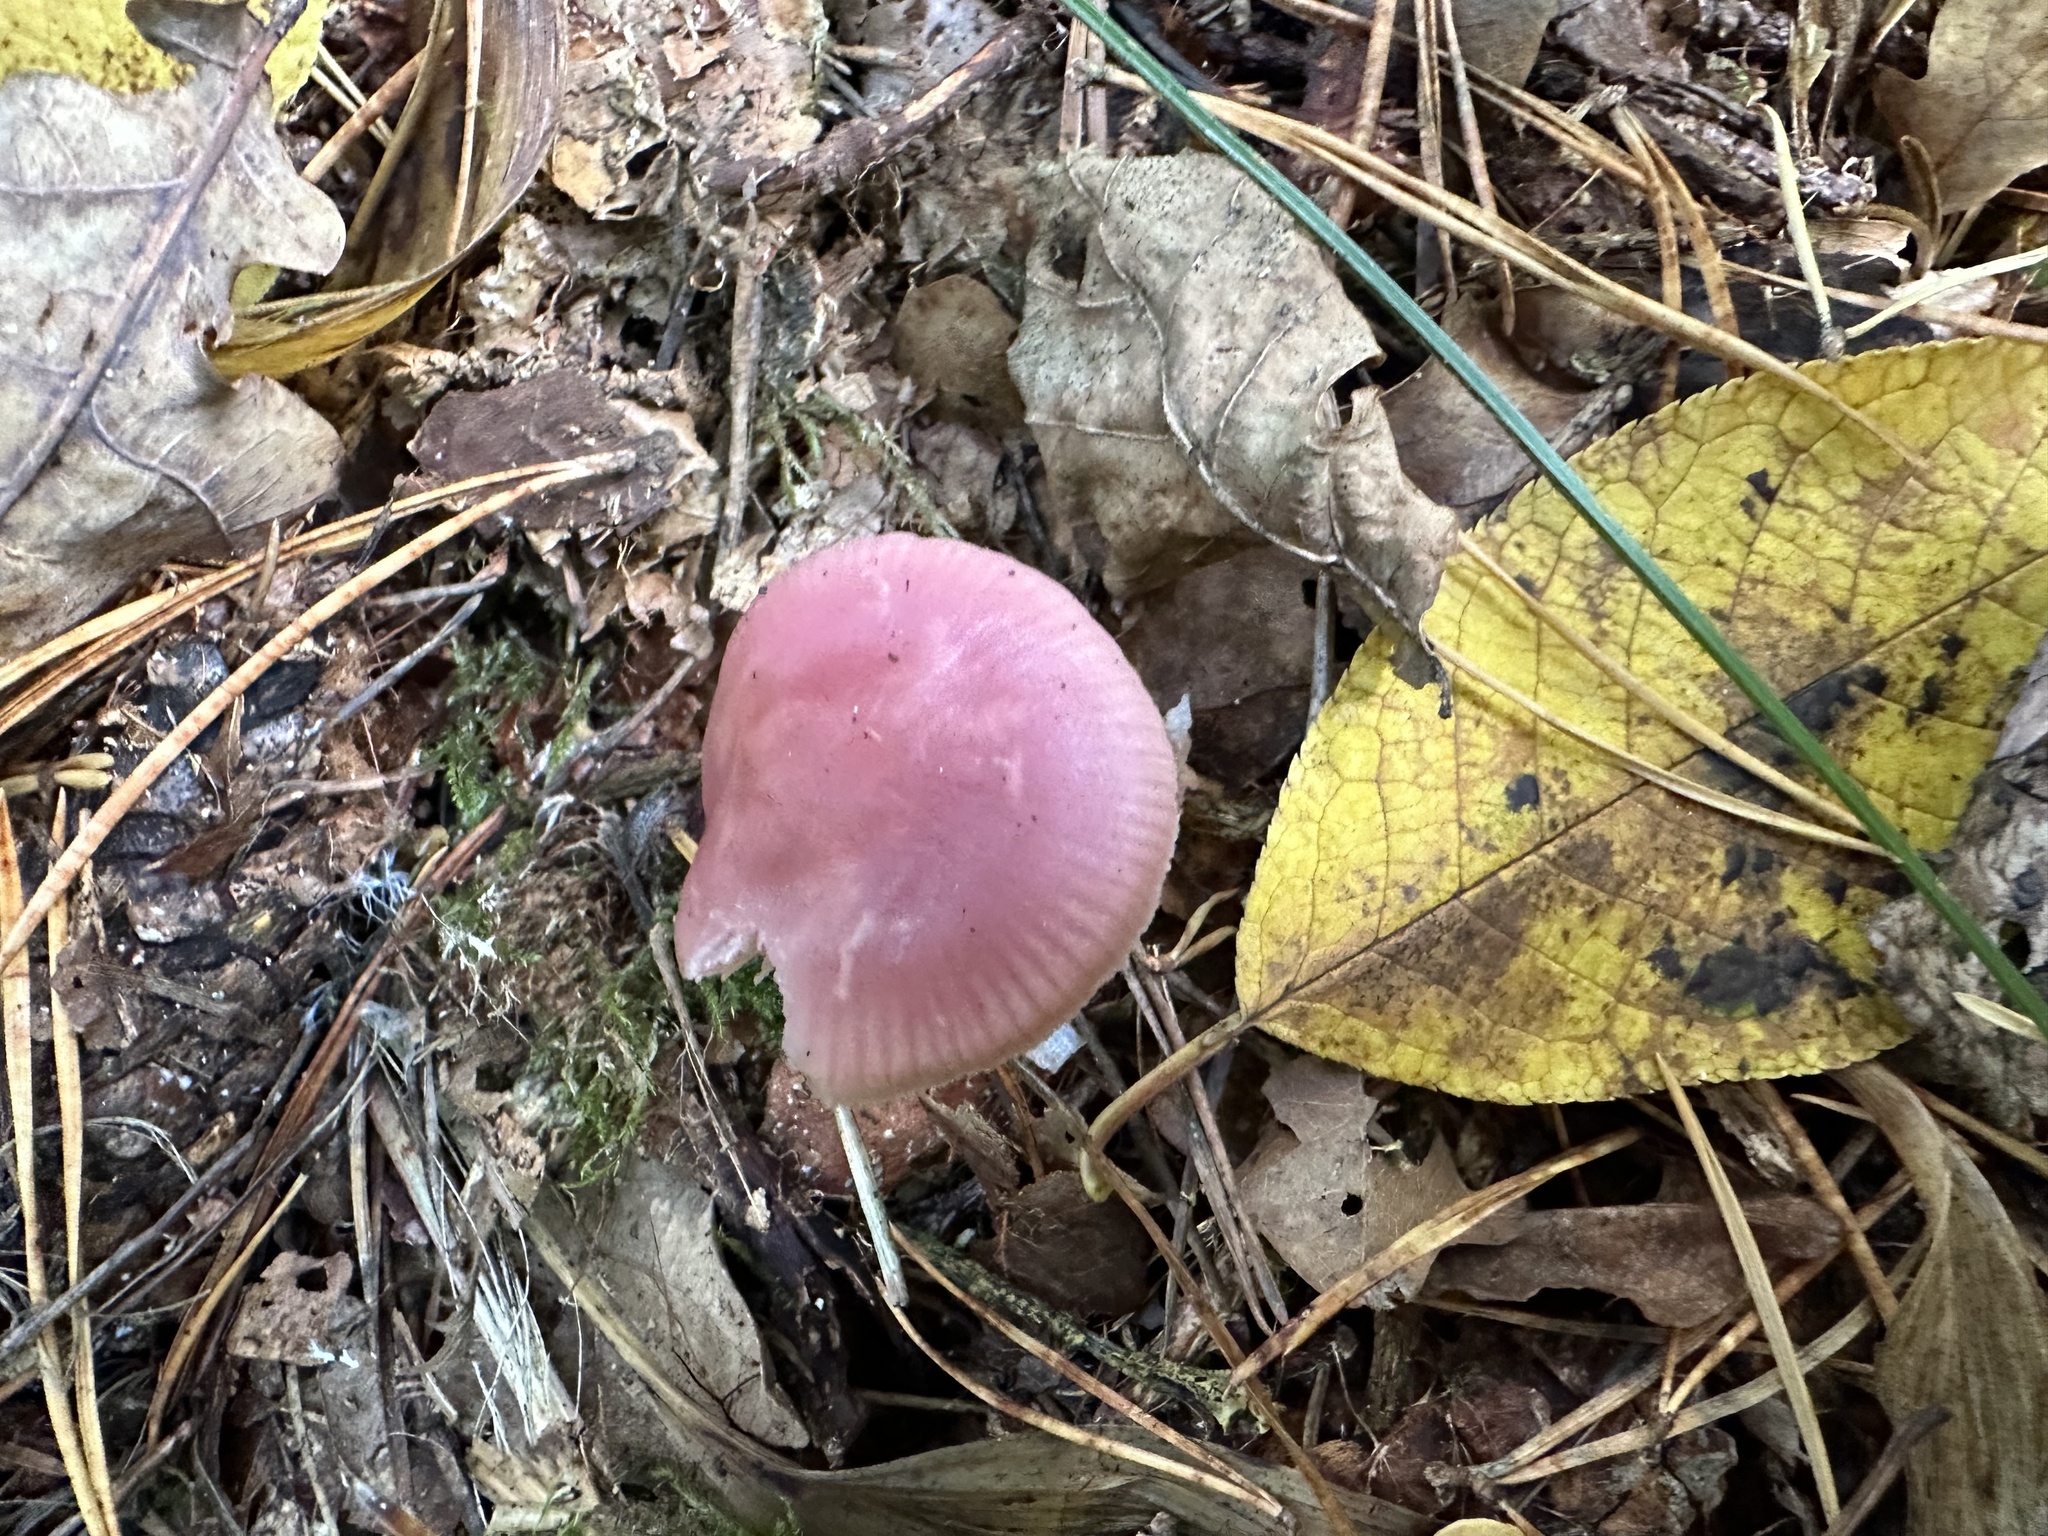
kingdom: Fungi
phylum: Basidiomycota
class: Agaricomycetes
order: Agaricales
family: Mycenaceae
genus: Mycena
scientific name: Mycena rosea
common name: Rosy bonnet
